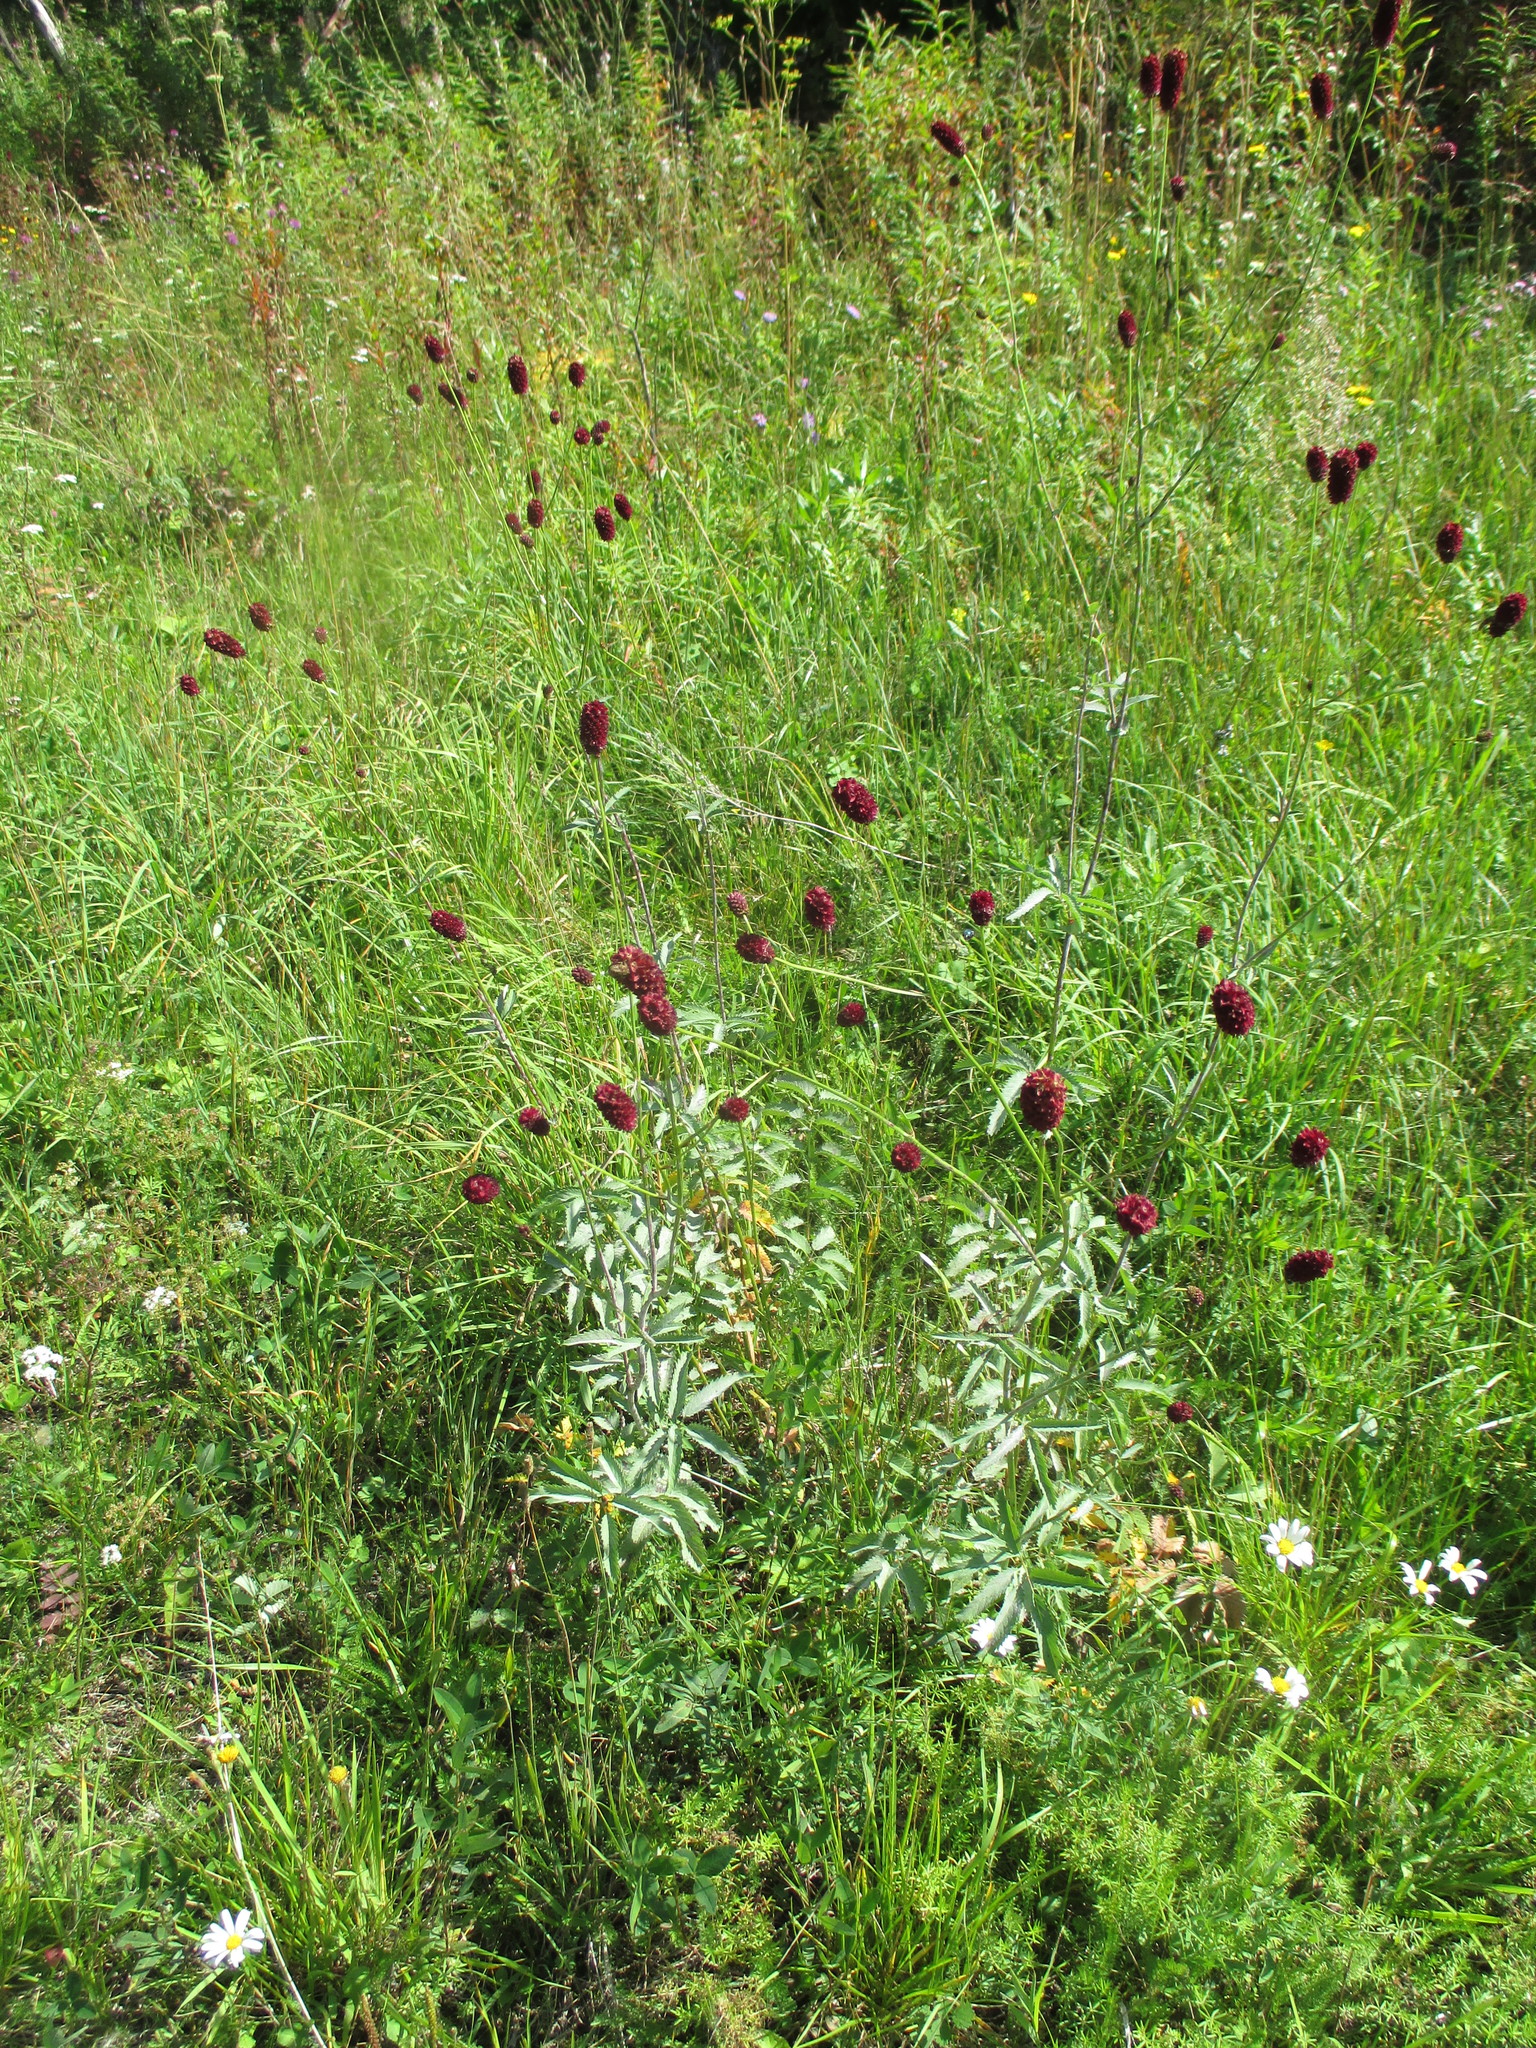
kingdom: Plantae
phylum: Tracheophyta
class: Magnoliopsida
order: Rosales
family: Rosaceae
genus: Sanguisorba
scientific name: Sanguisorba officinalis
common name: Great burnet
